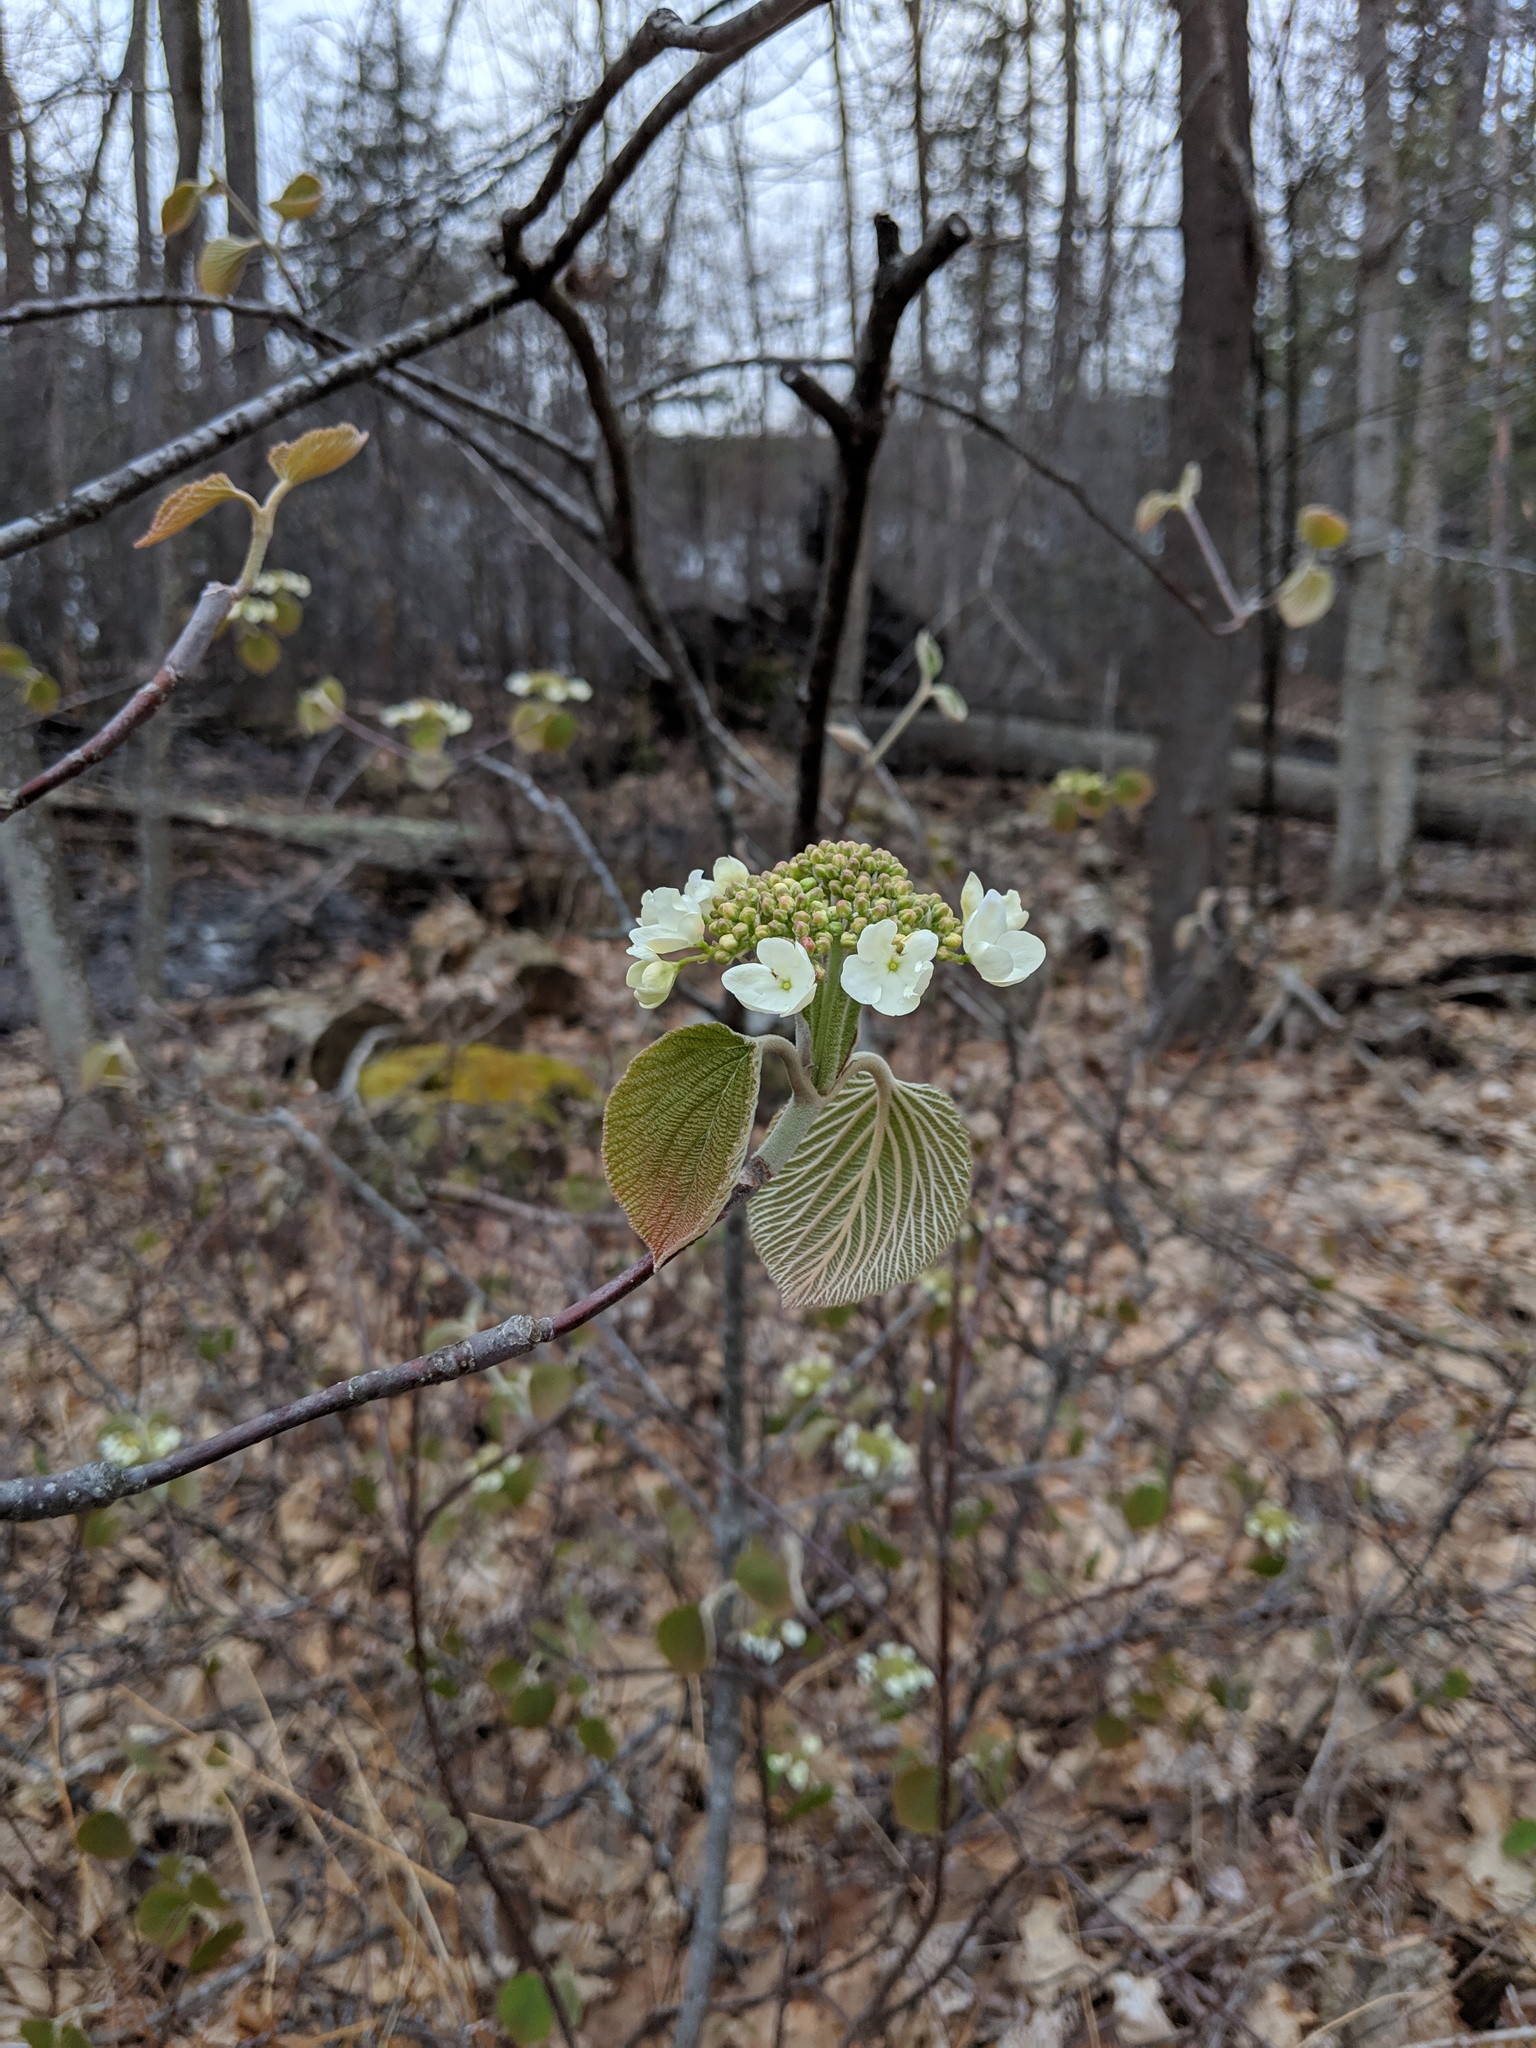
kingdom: Plantae
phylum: Tracheophyta
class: Magnoliopsida
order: Dipsacales
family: Viburnaceae
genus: Viburnum
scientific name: Viburnum lantanoides
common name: Hobblebush
